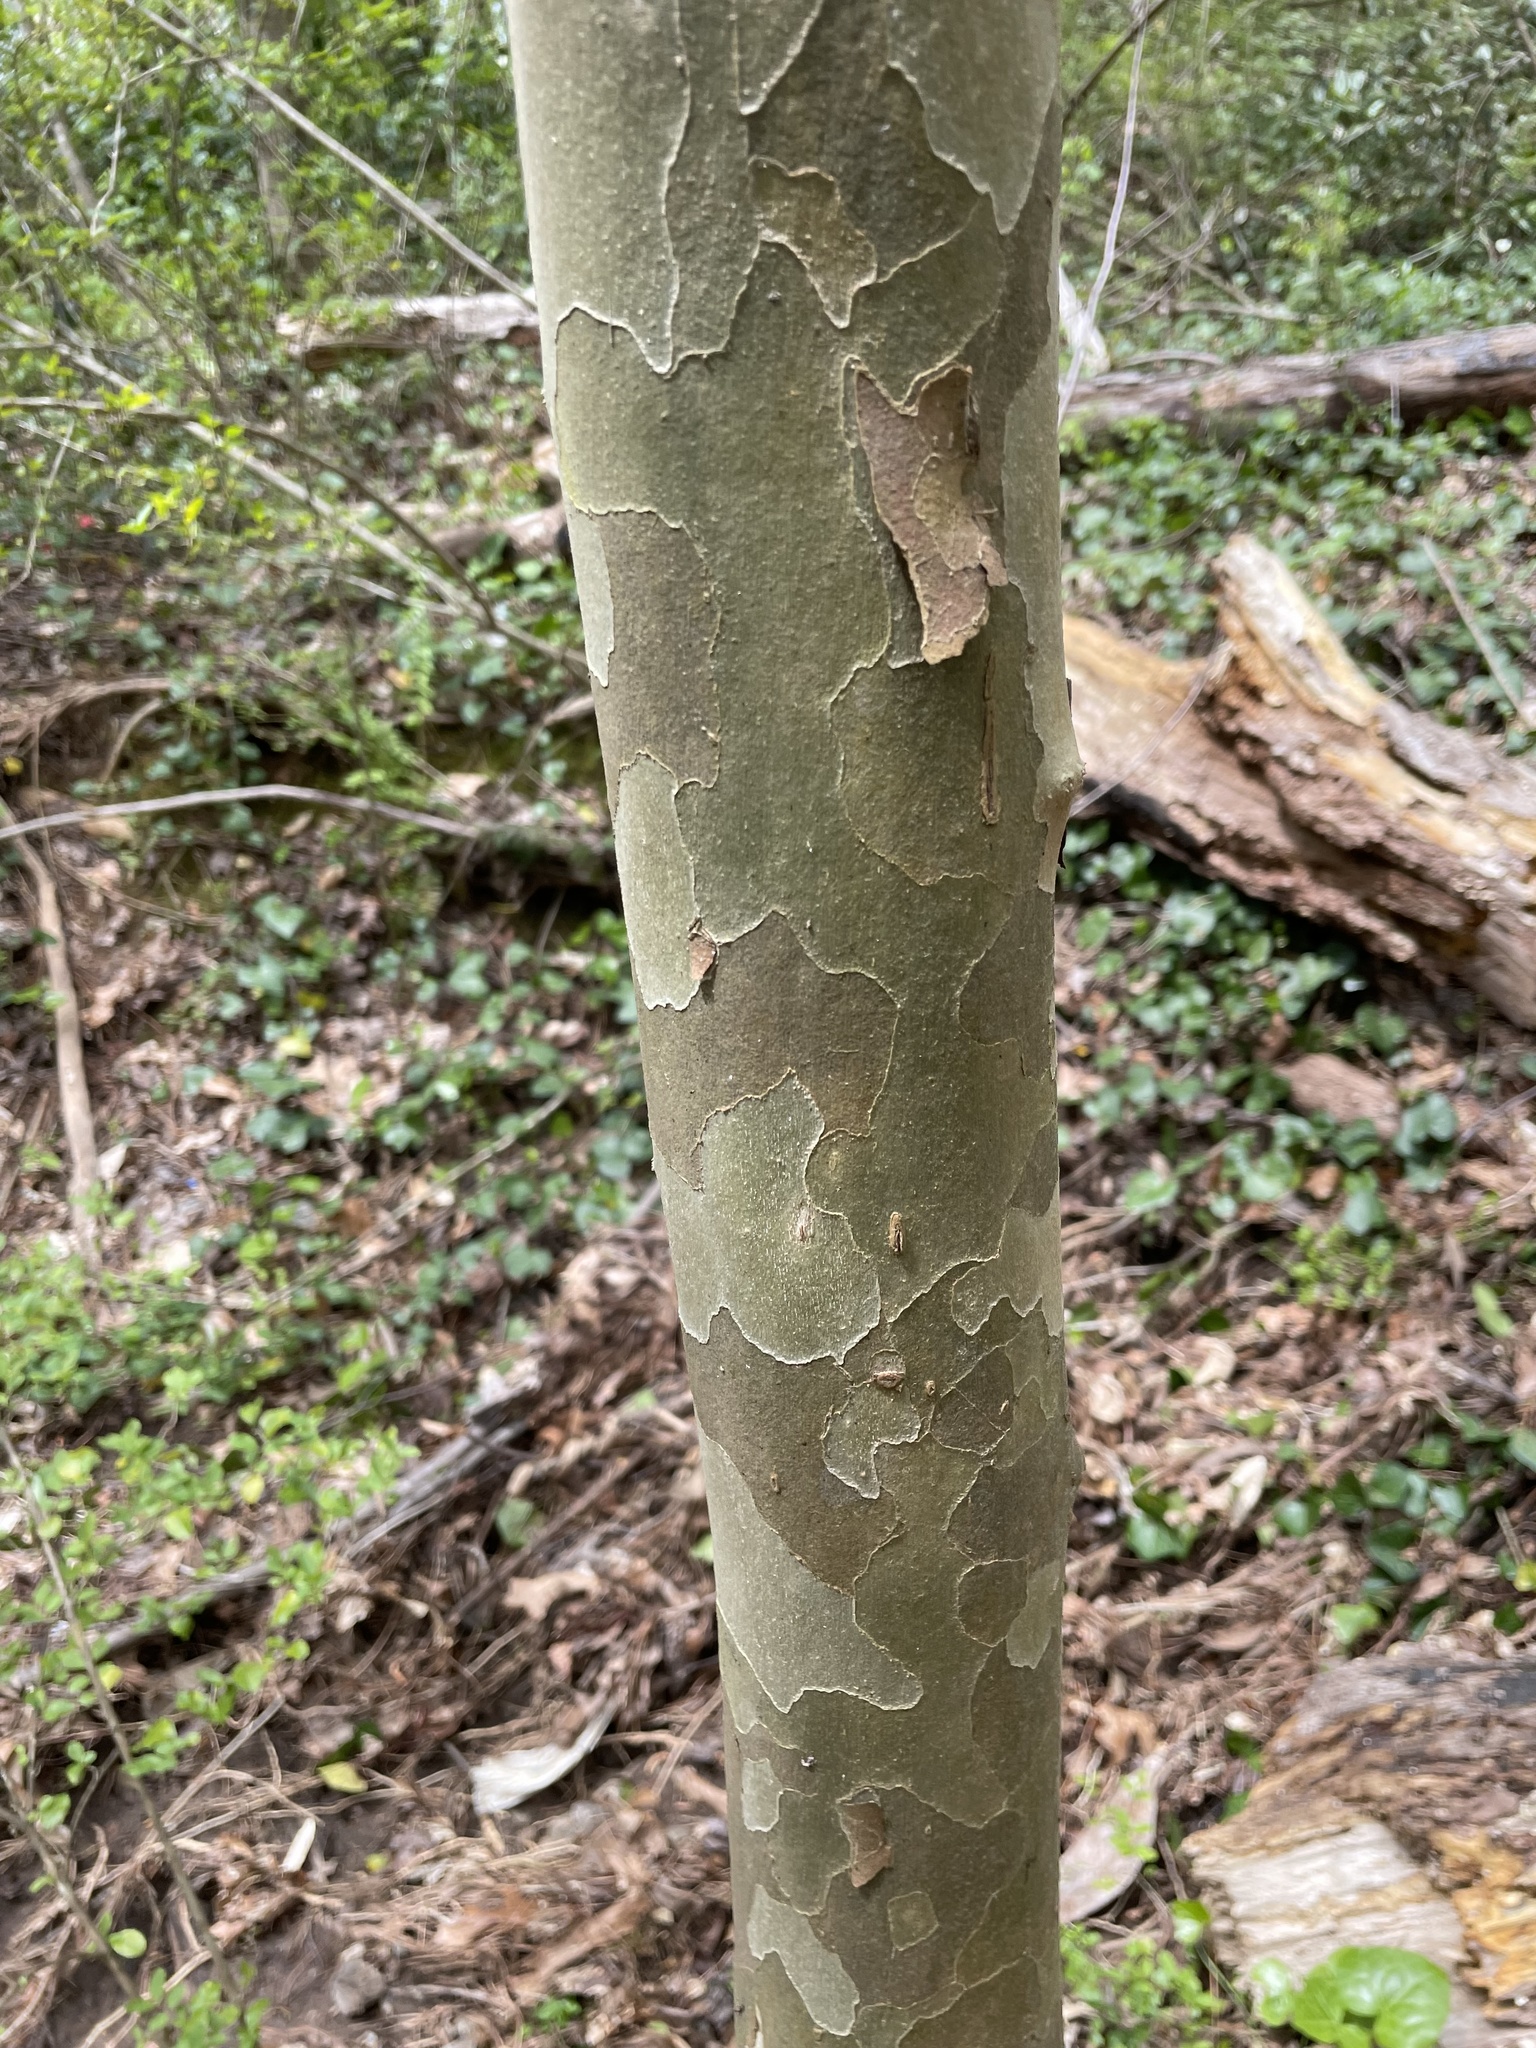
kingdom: Plantae
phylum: Tracheophyta
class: Magnoliopsida
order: Proteales
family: Platanaceae
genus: Platanus
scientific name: Platanus occidentalis
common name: American sycamore
